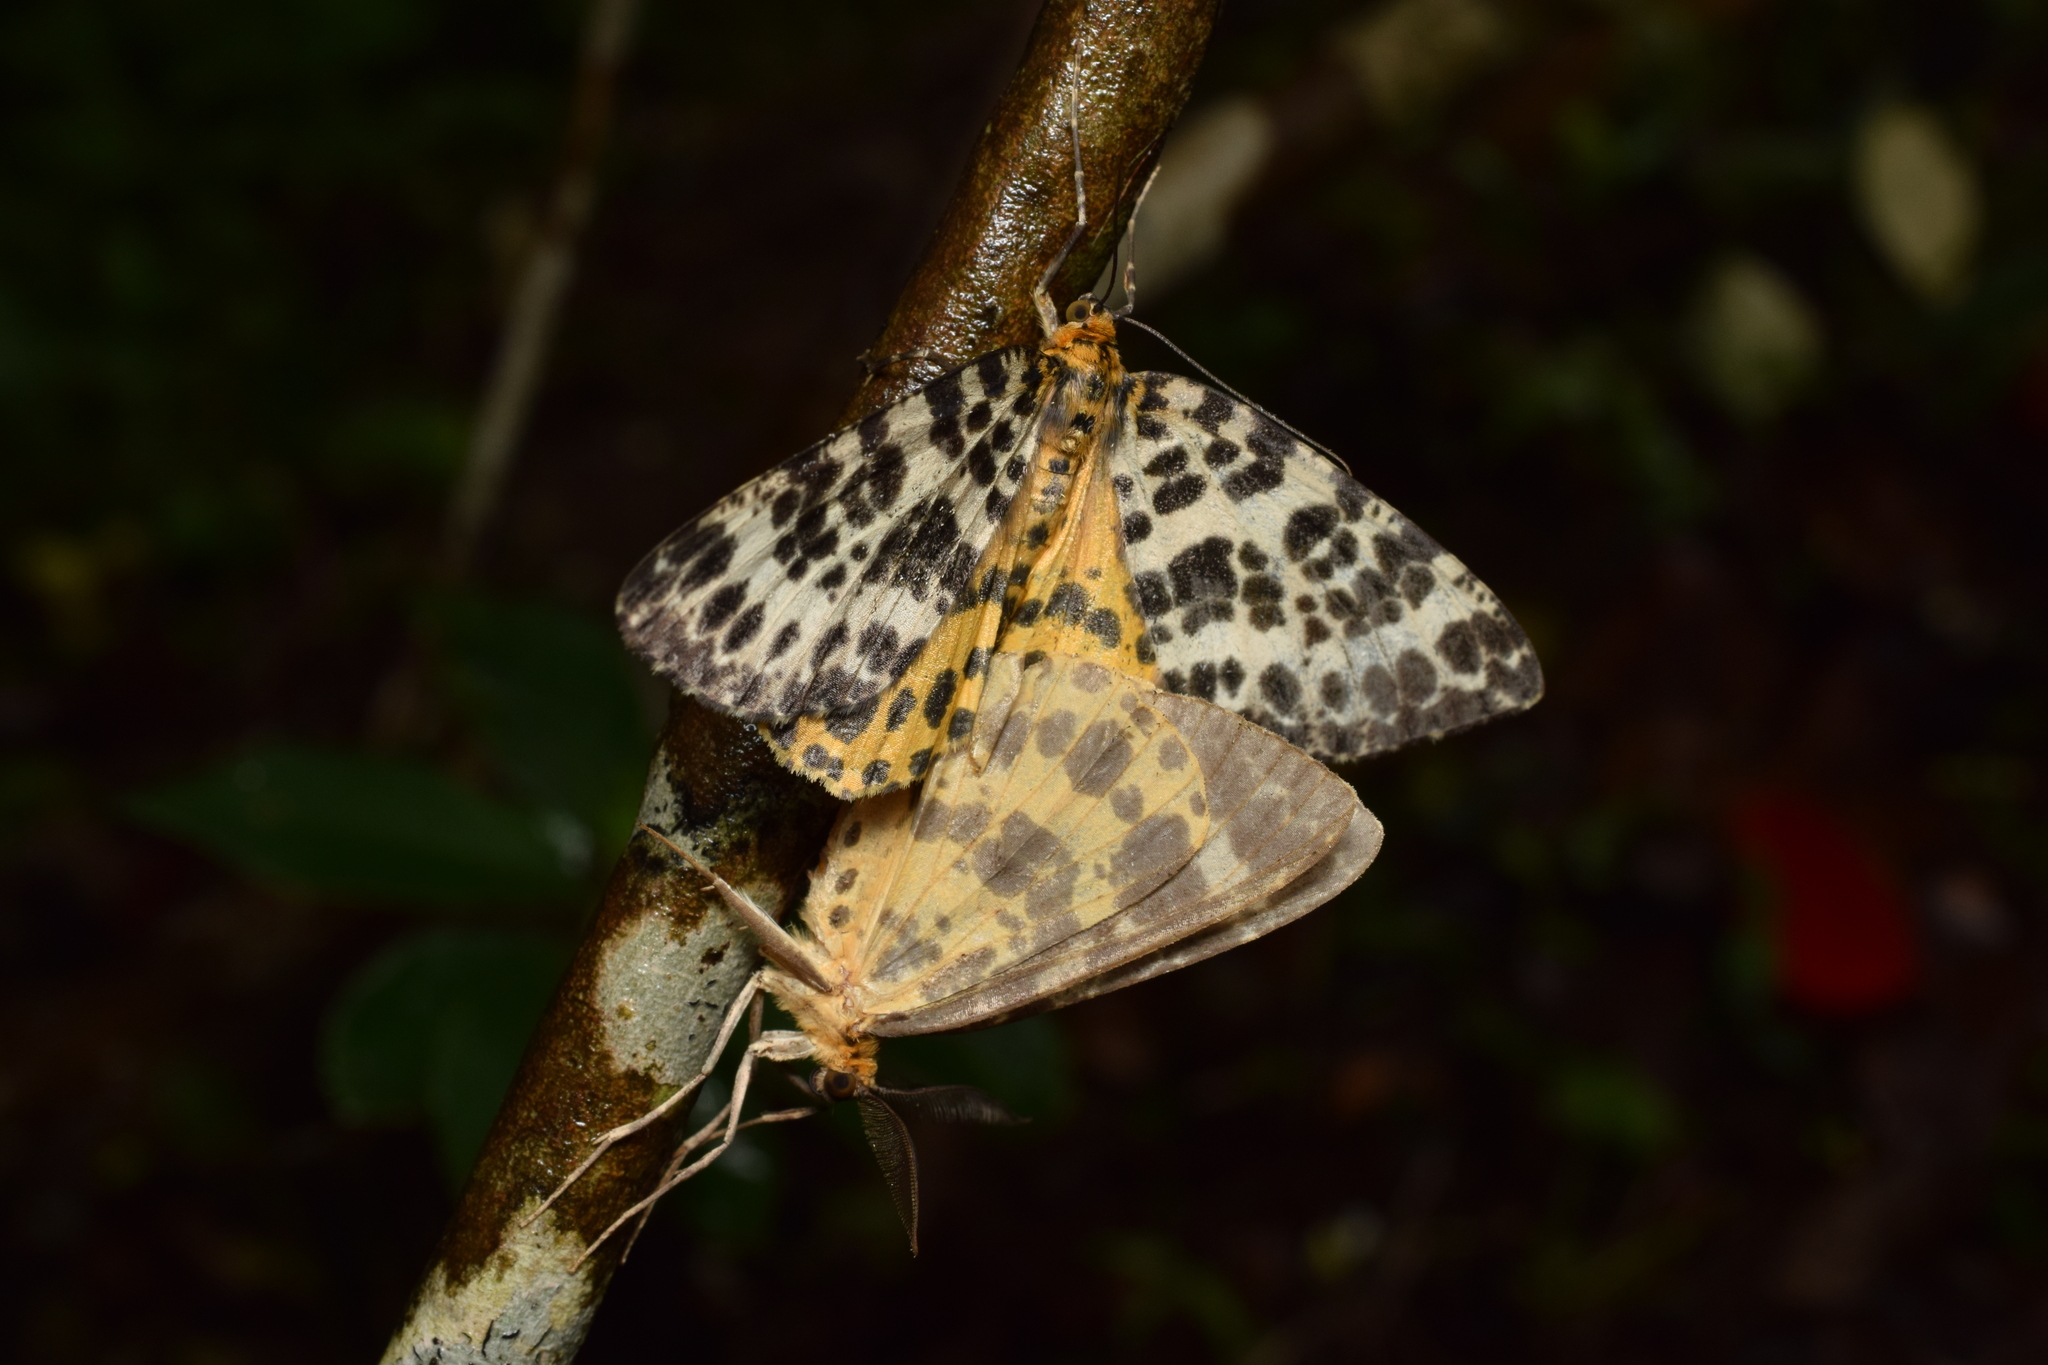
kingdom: Animalia
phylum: Arthropoda
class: Insecta
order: Lepidoptera
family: Geometridae
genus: Arichanna
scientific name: Arichanna melanaria
